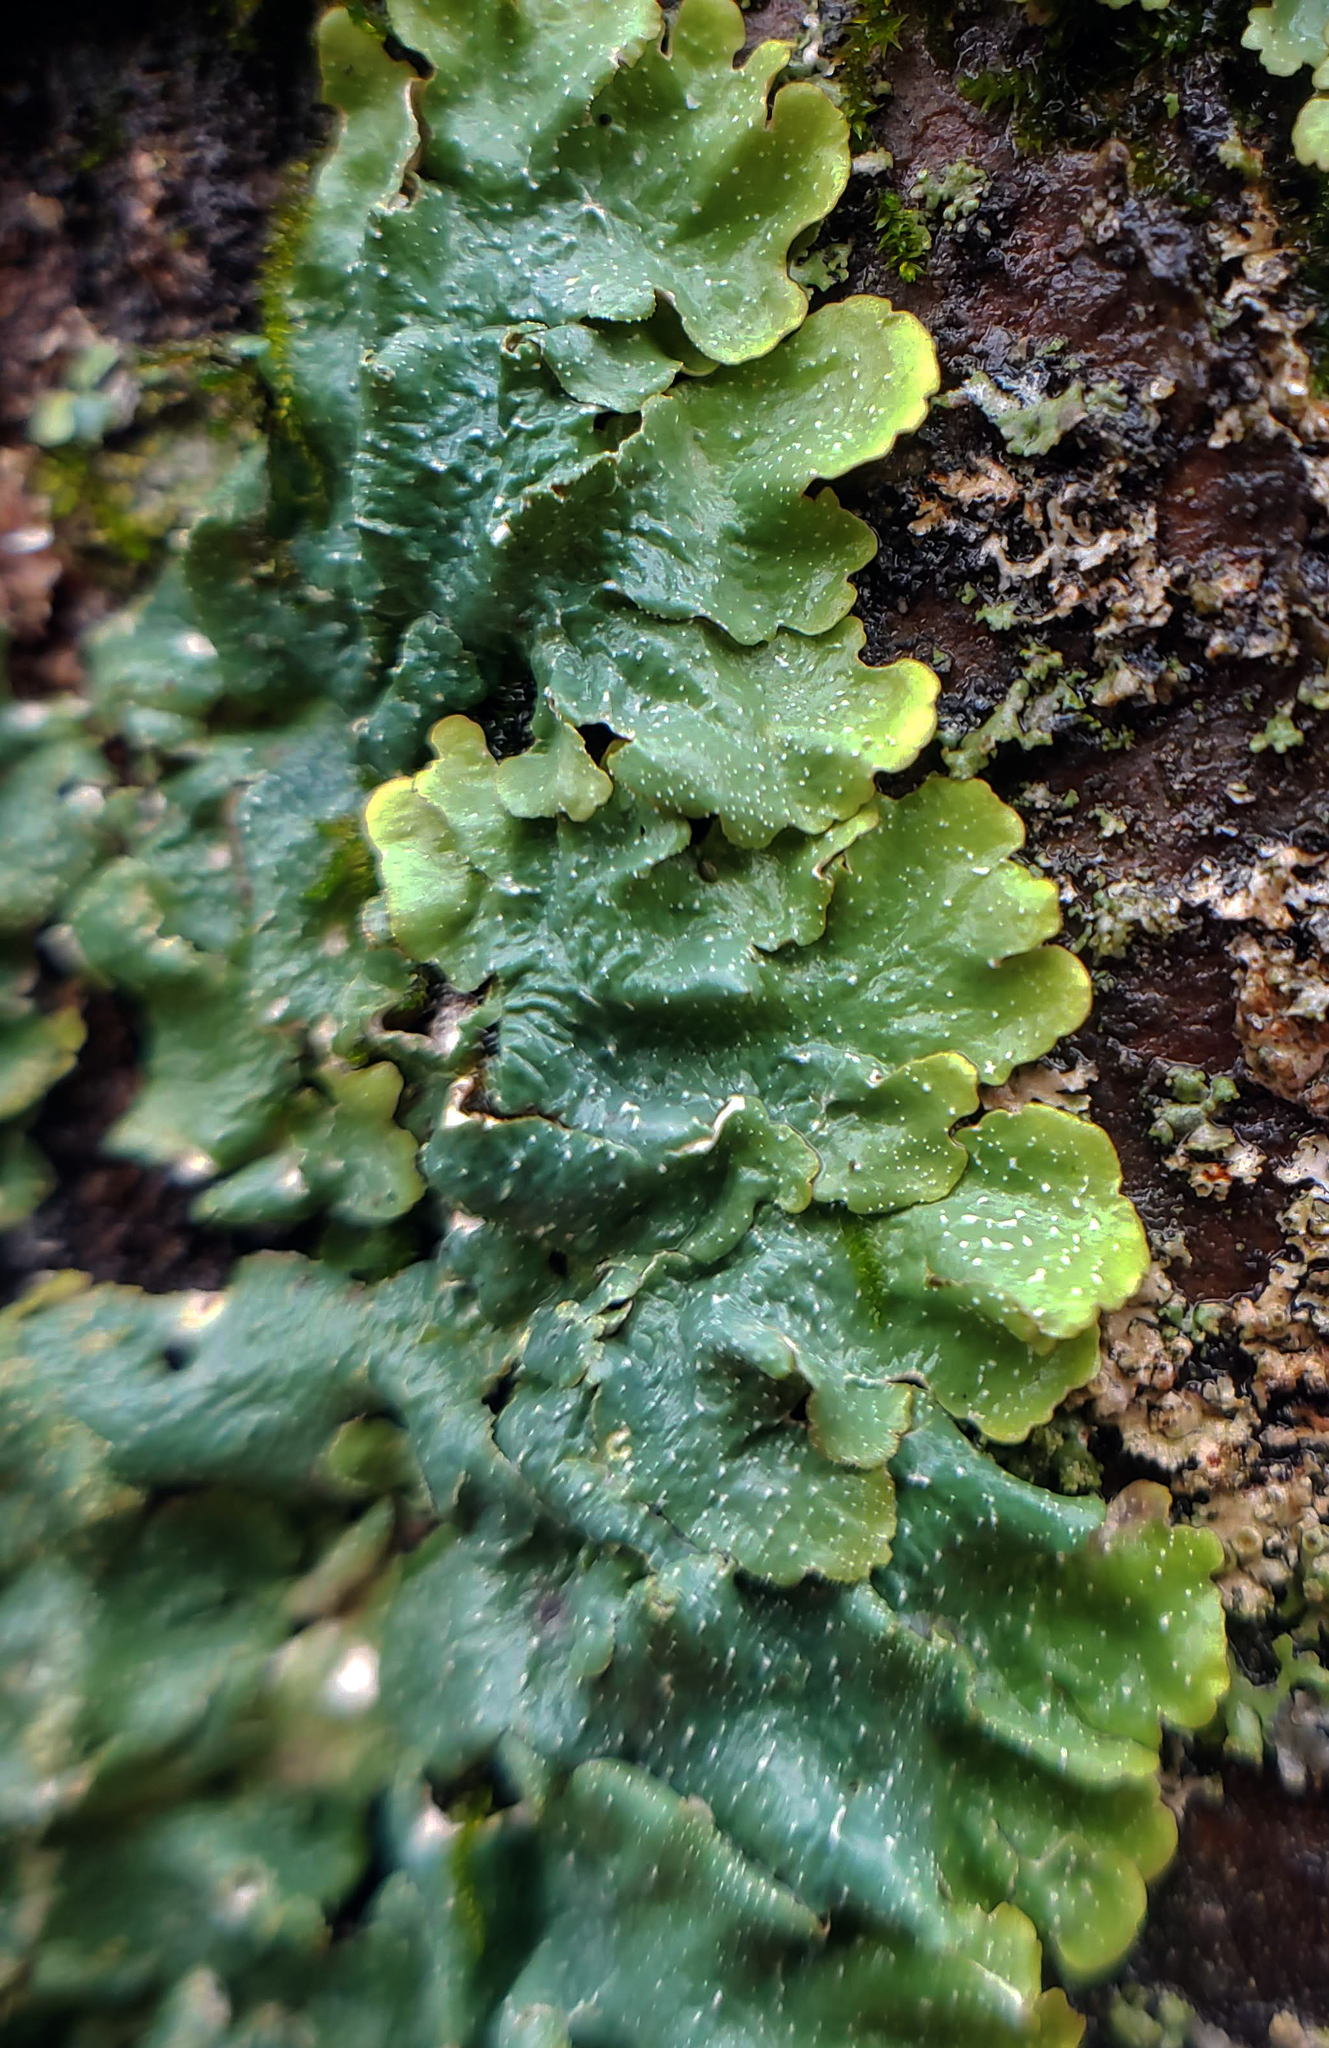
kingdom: Fungi
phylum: Ascomycota
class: Lecanoromycetes
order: Lecanorales
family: Parmeliaceae
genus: Punctelia
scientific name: Punctelia rudecta
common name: Rough speckled shield lichen
